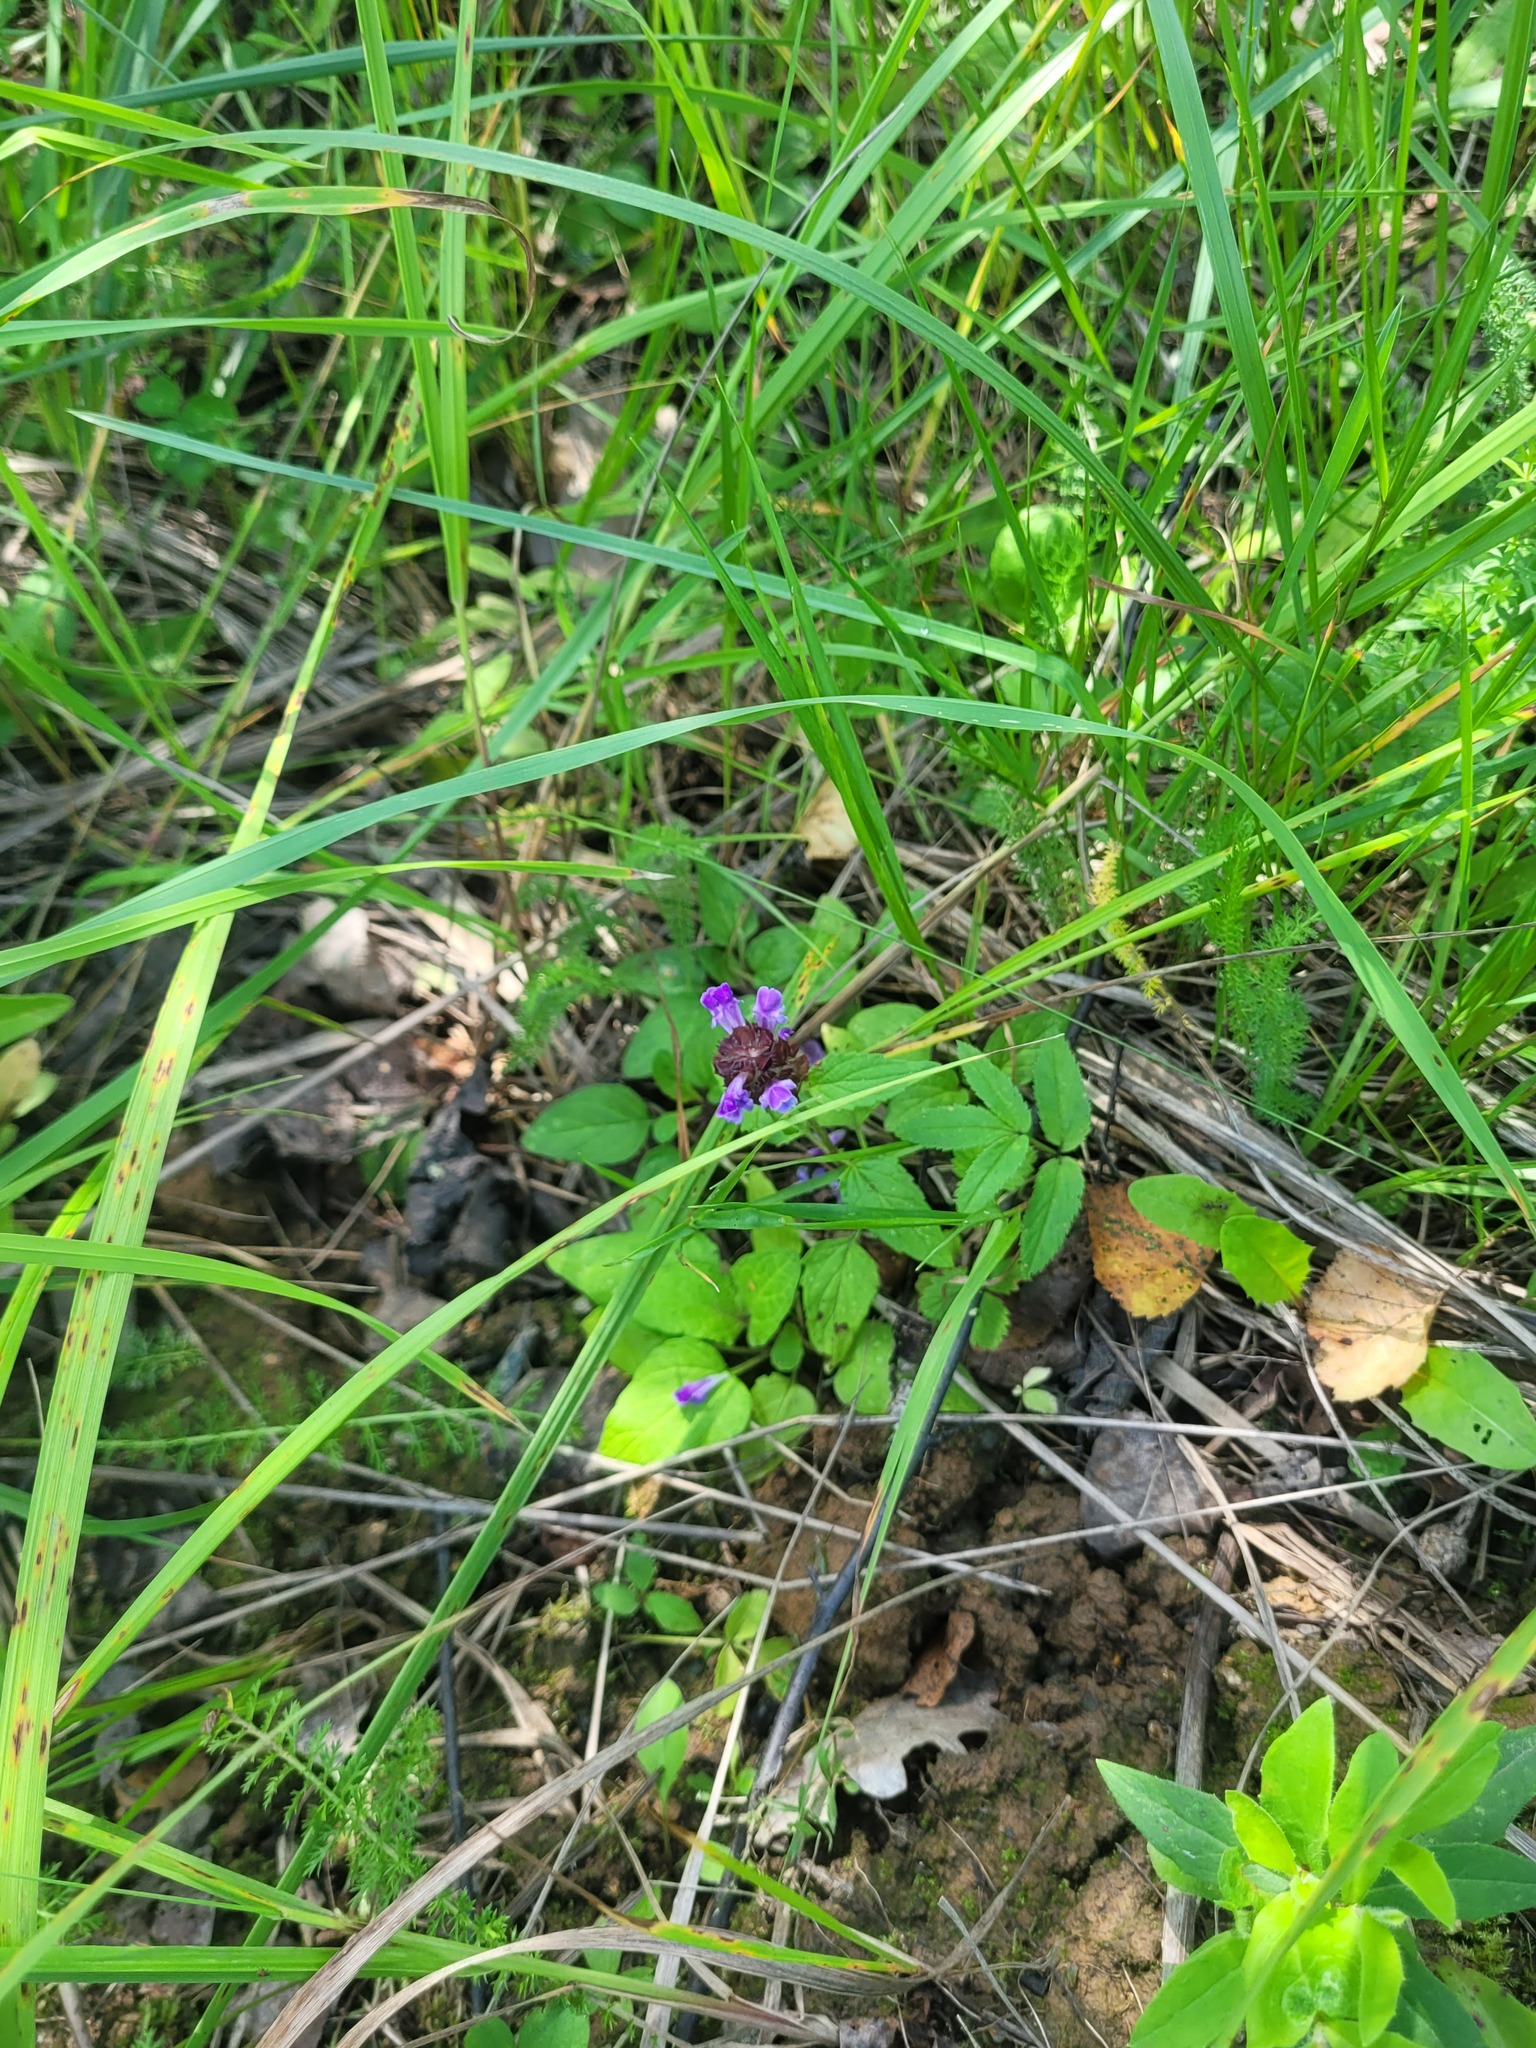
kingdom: Plantae
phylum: Tracheophyta
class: Magnoliopsida
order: Lamiales
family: Lamiaceae
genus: Prunella
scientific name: Prunella vulgaris
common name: Heal-all
